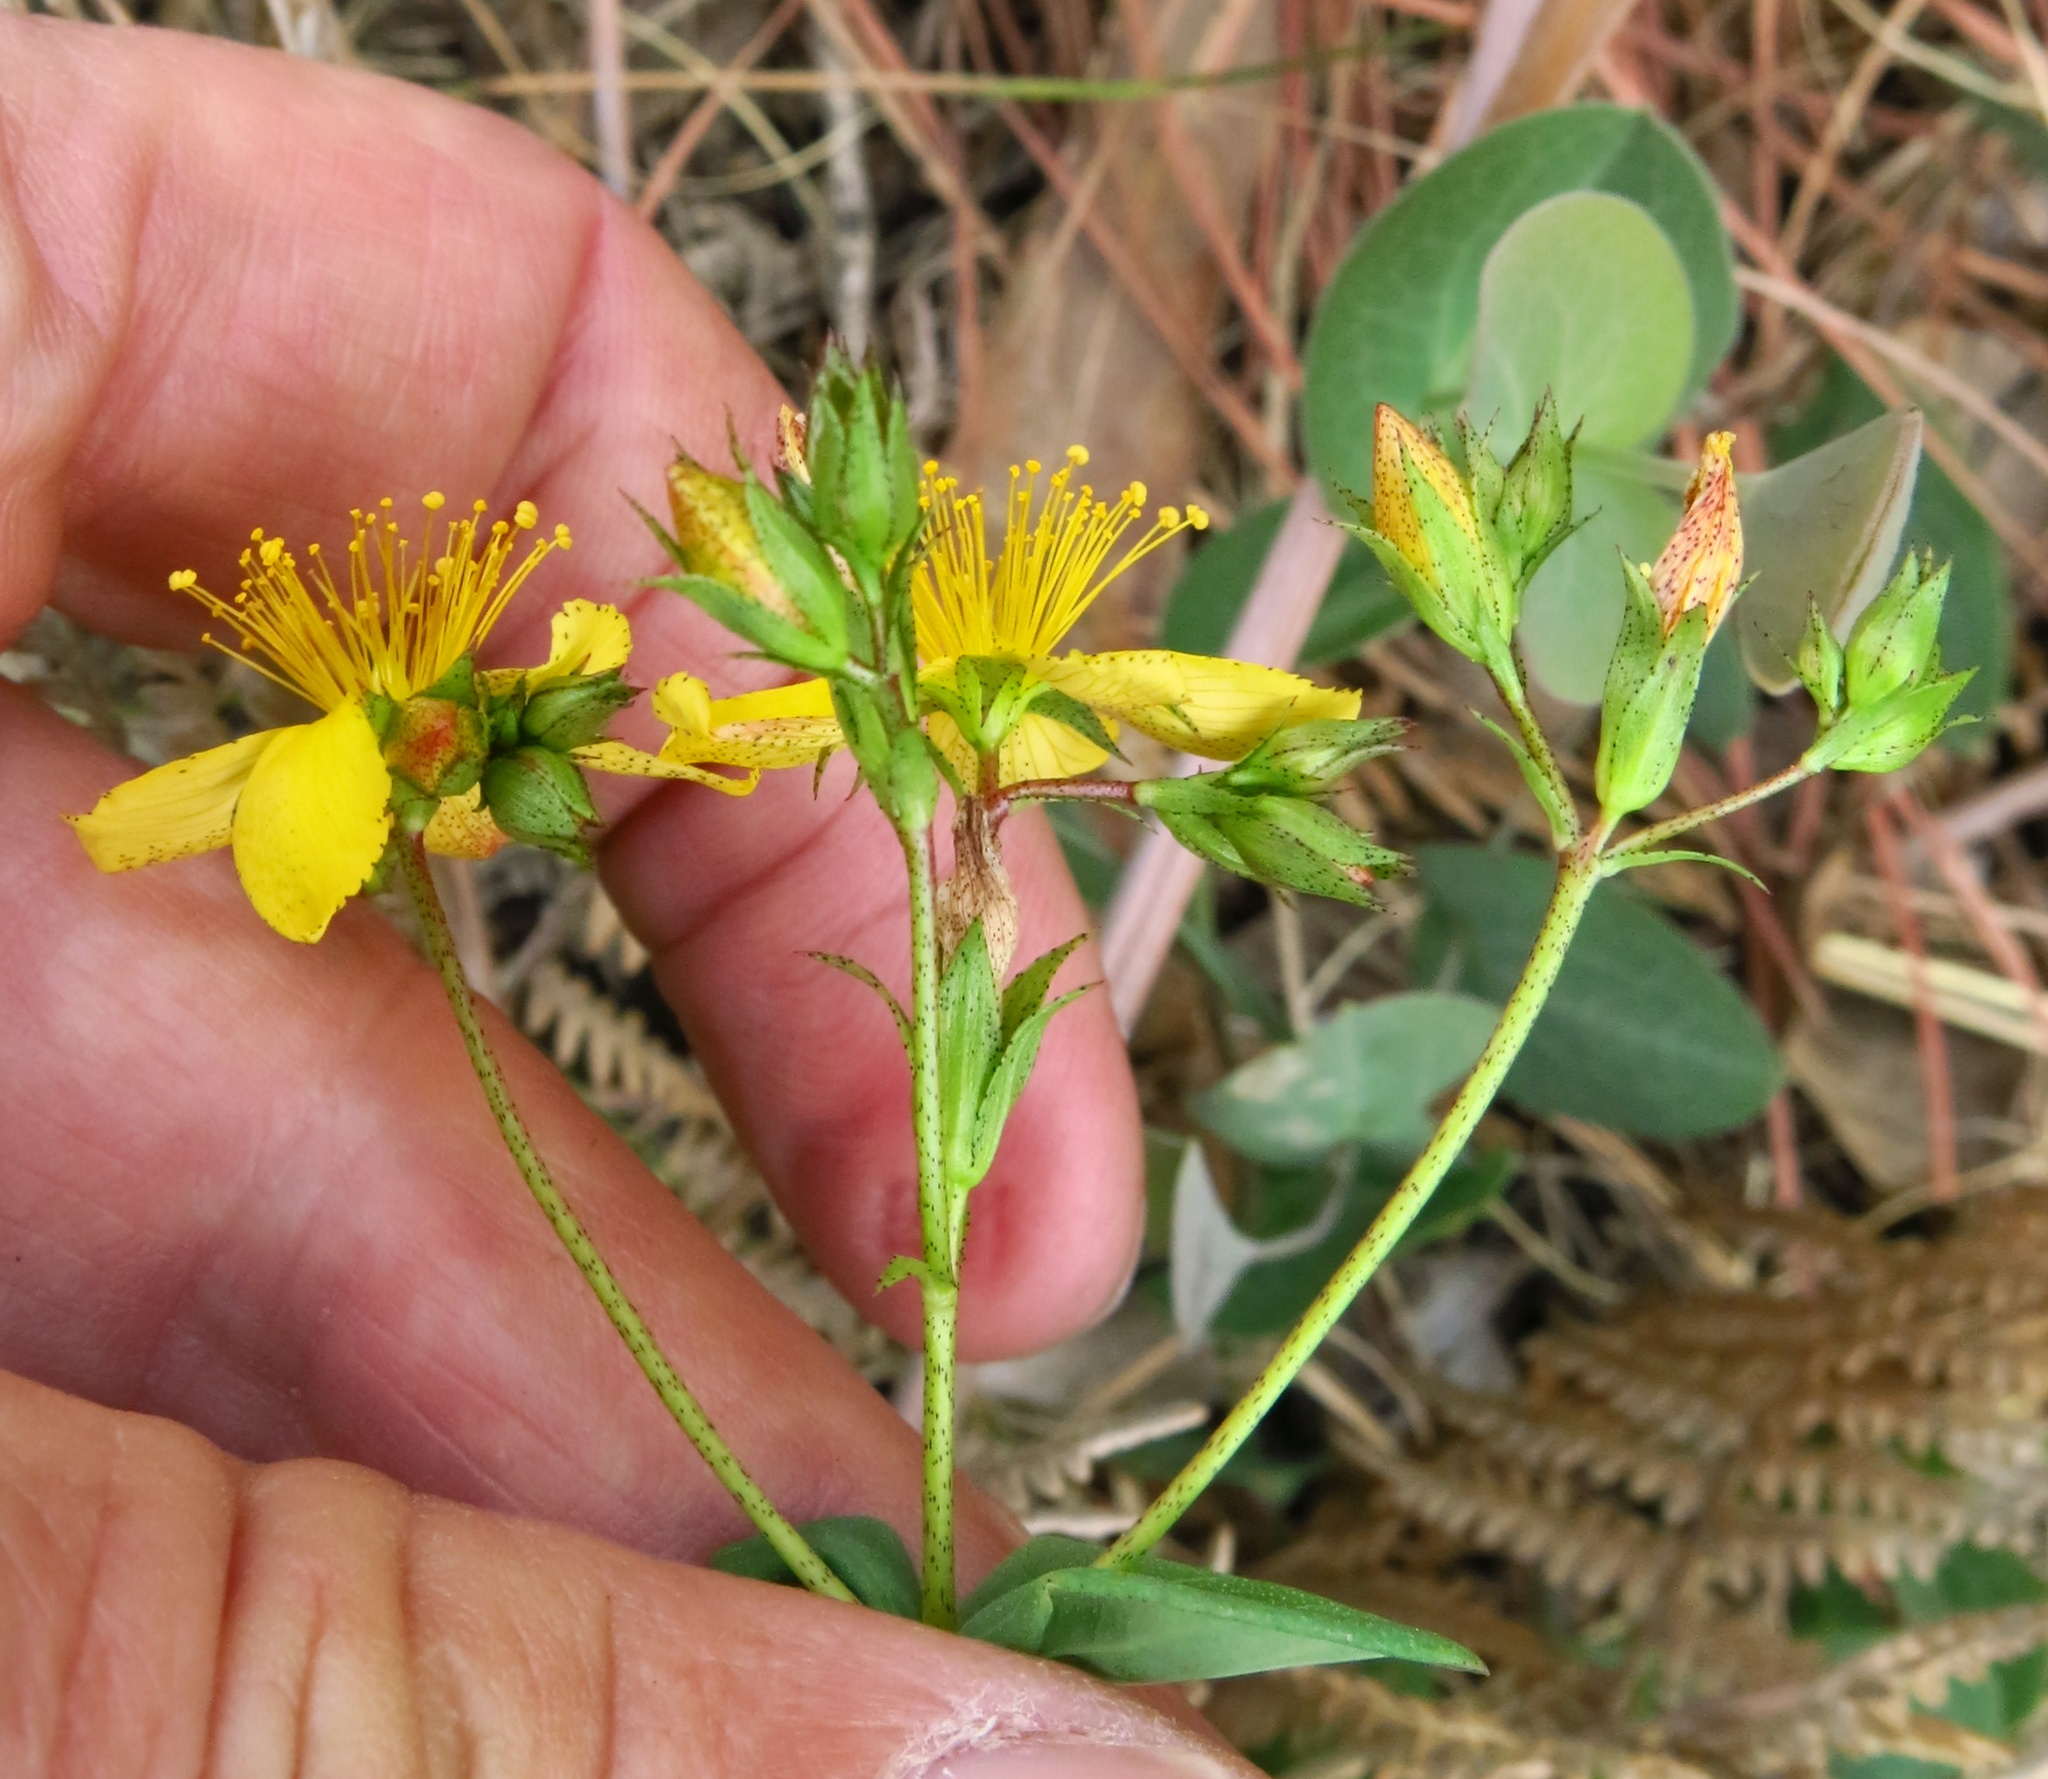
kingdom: Plantae
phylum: Tracheophyta
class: Magnoliopsida
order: Malpighiales
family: Hypericaceae
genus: Hypericum
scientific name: Hypericum aethiopicum
